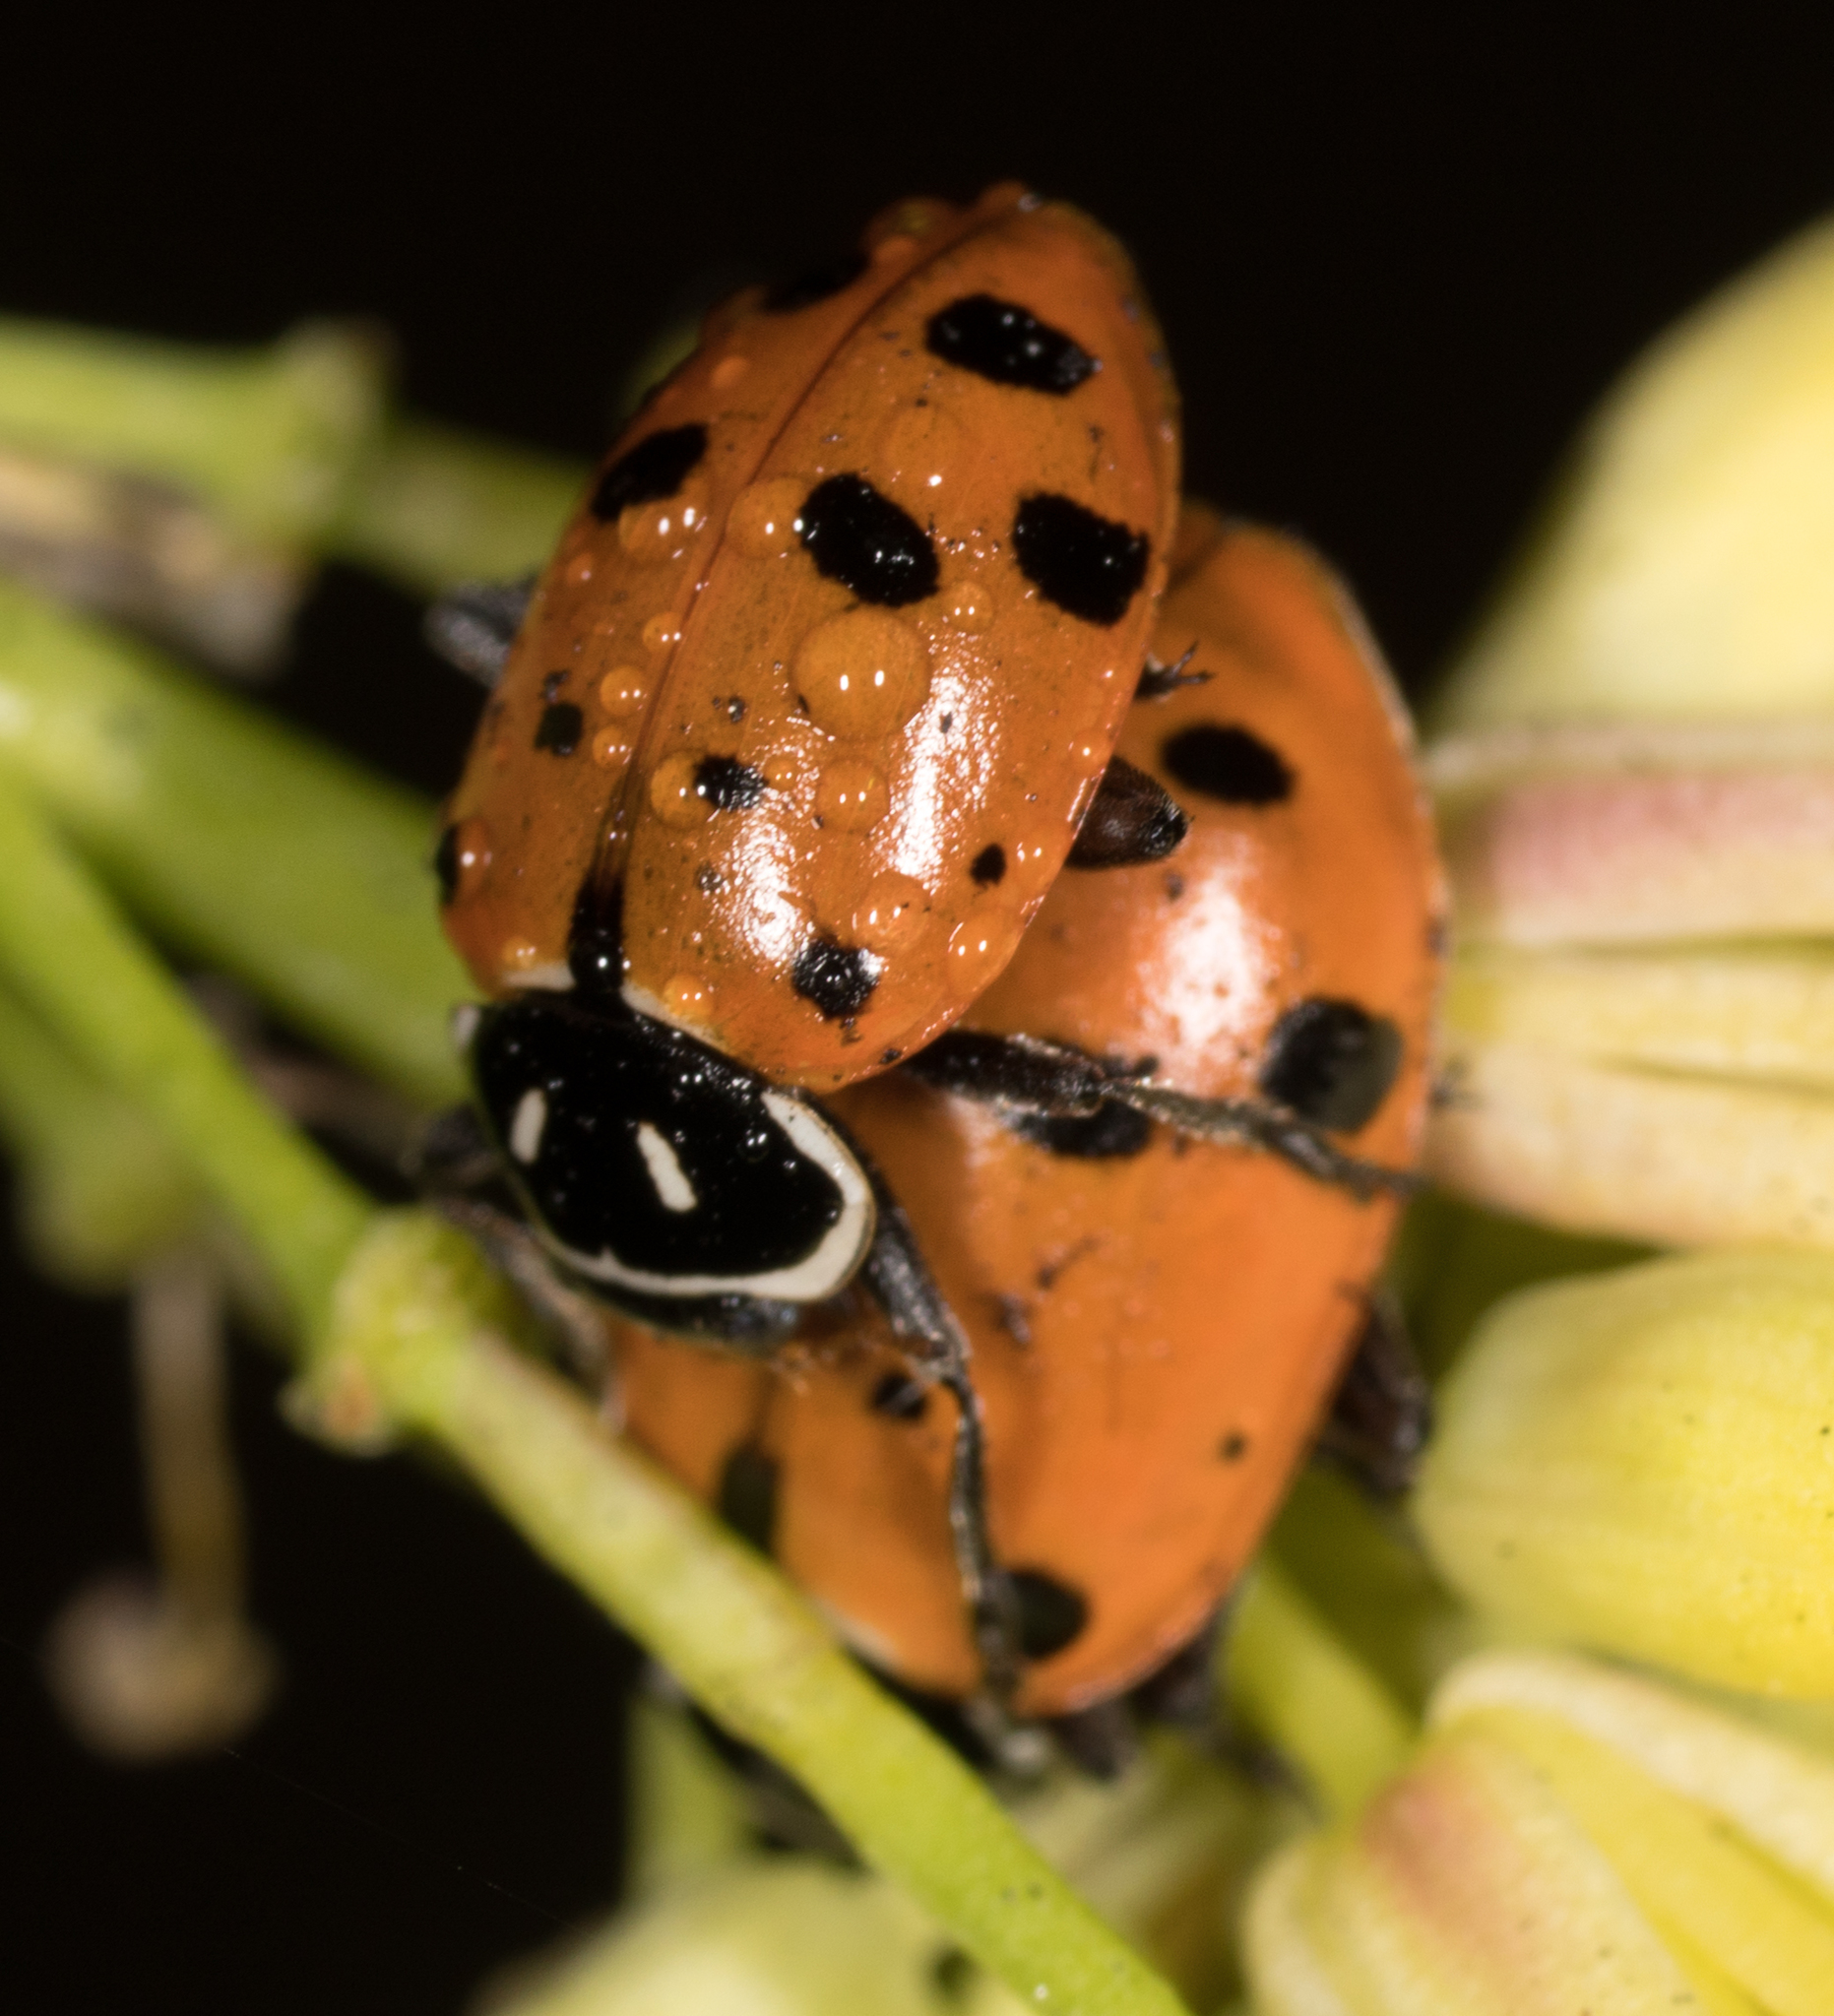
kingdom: Animalia
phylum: Arthropoda
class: Insecta
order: Coleoptera
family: Coccinellidae
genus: Hippodamia
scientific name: Hippodamia convergens
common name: Convergent lady beetle
